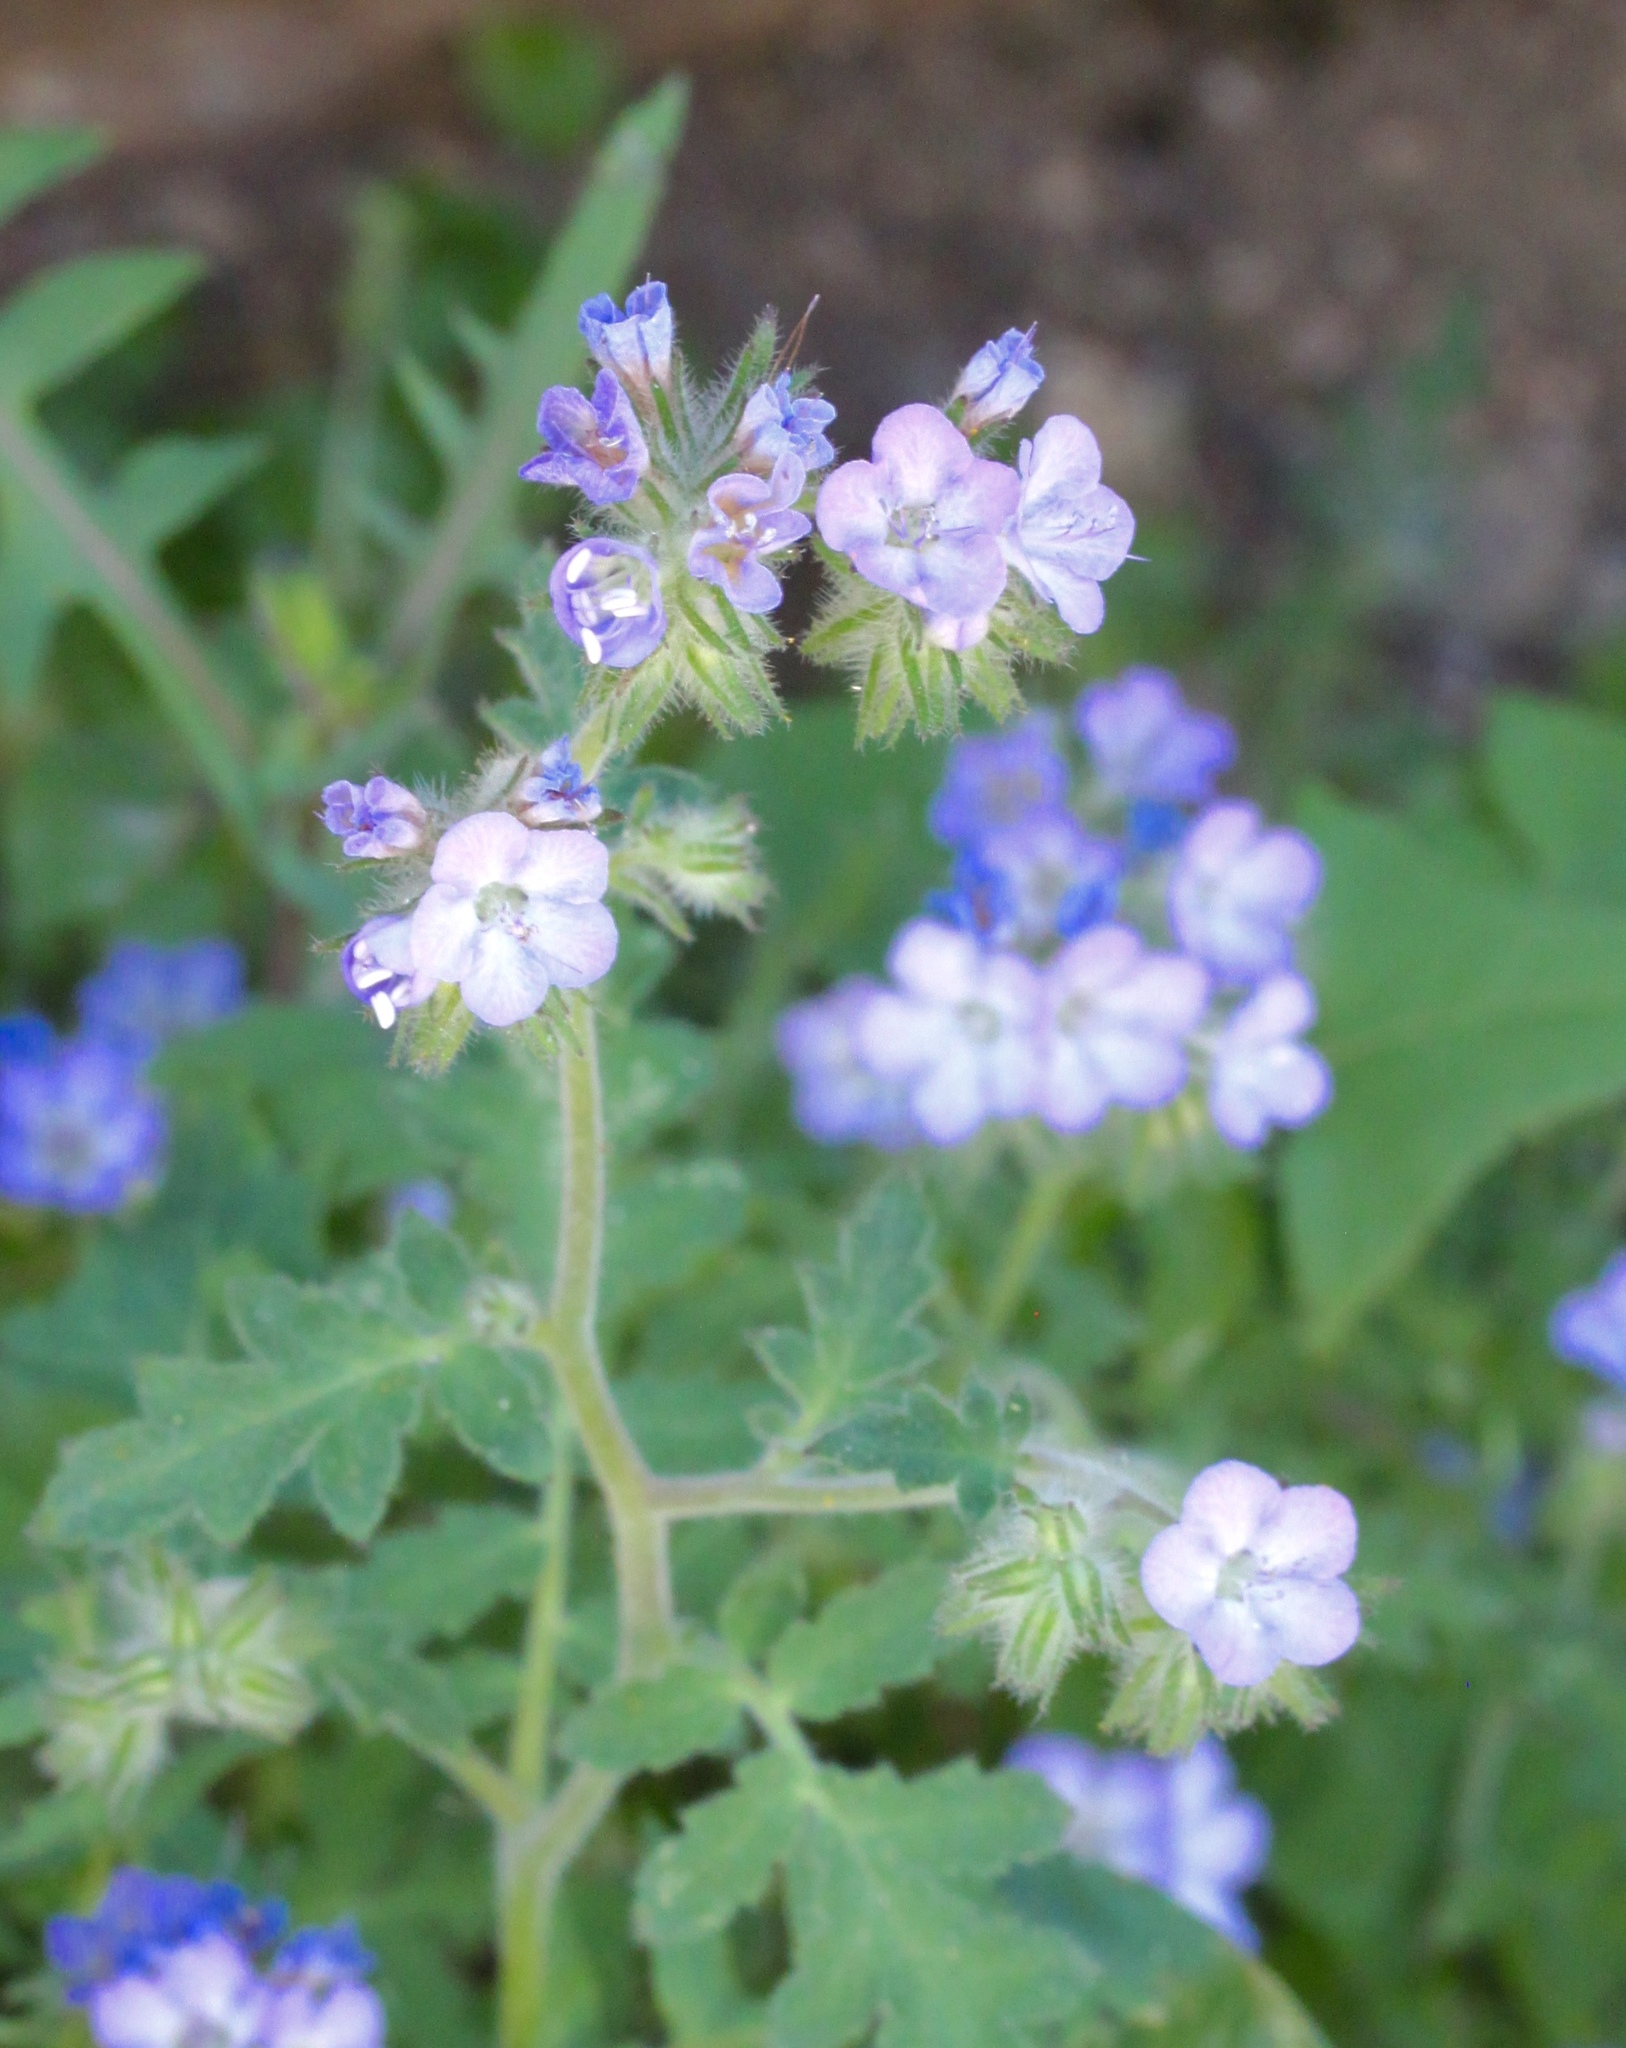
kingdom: Plantae
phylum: Tracheophyta
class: Magnoliopsida
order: Boraginales
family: Hydrophyllaceae
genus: Phacelia
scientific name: Phacelia distans
